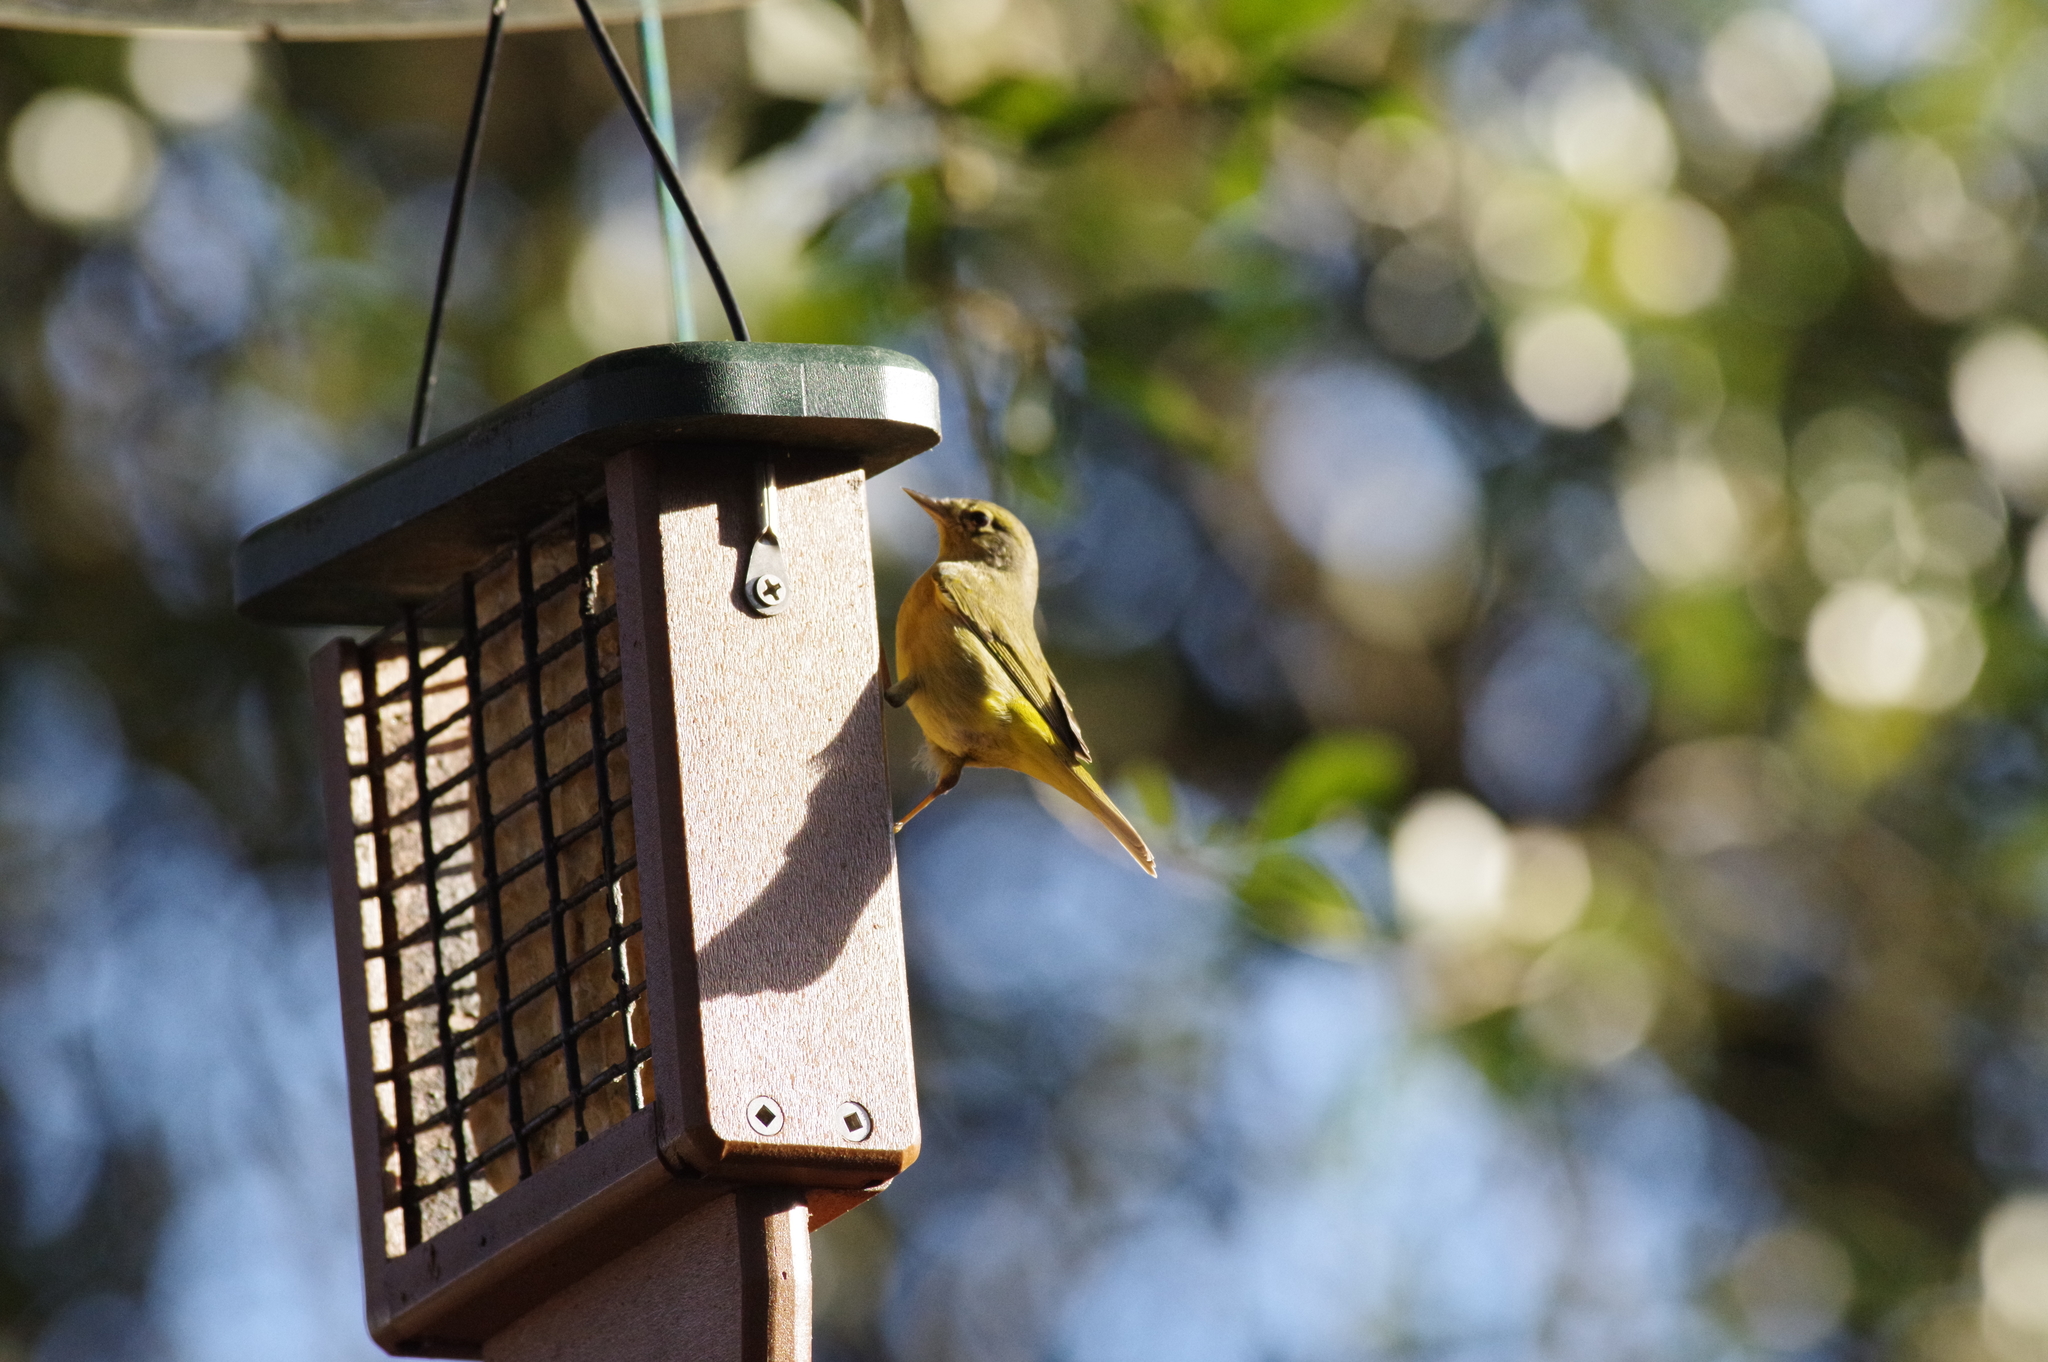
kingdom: Animalia
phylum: Chordata
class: Aves
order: Passeriformes
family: Parulidae
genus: Leiothlypis
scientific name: Leiothlypis celata
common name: Orange-crowned warbler
